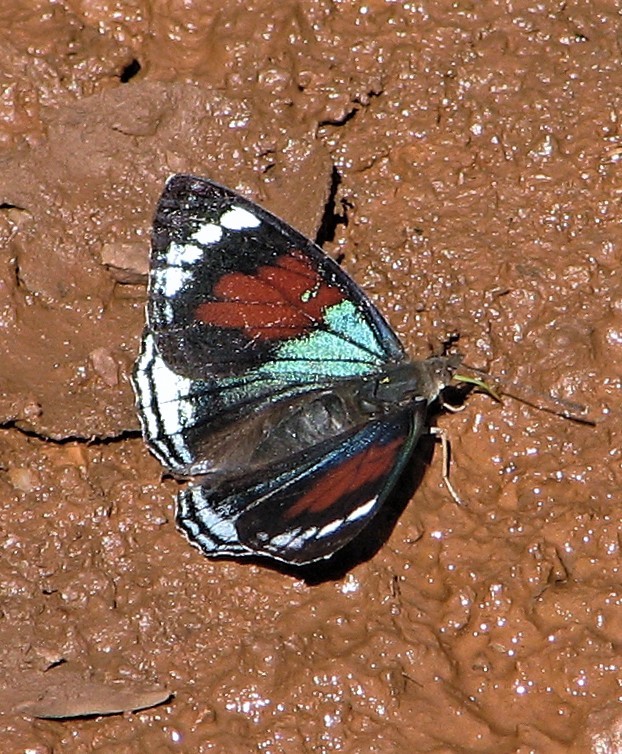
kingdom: Animalia
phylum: Arthropoda
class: Insecta
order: Lepidoptera
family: Nymphalidae
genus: Doxocopa
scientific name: Doxocopa zunilda
